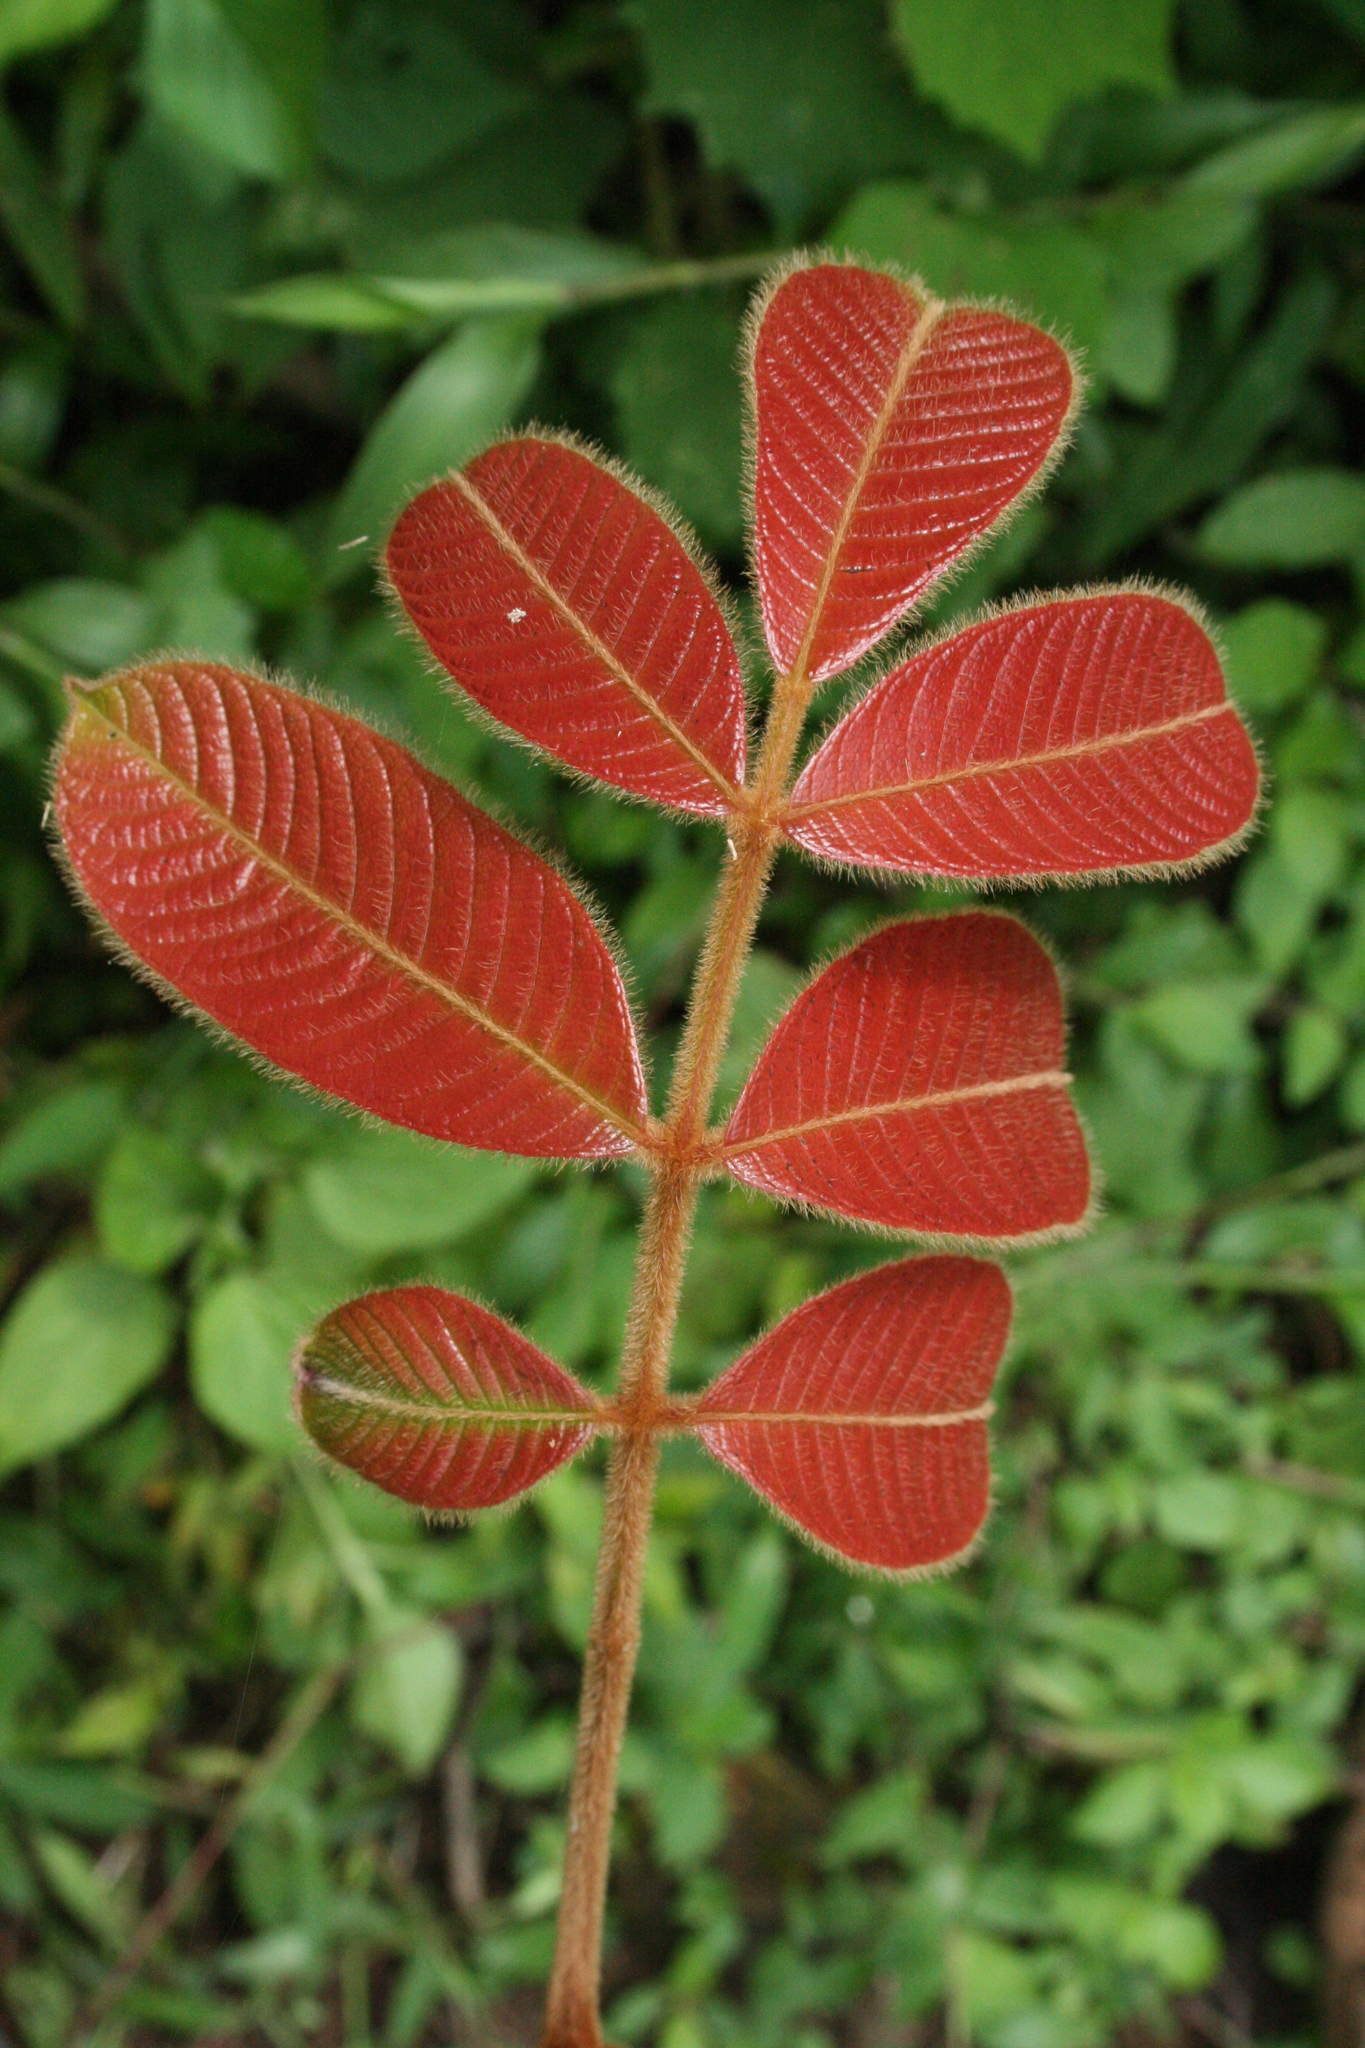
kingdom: Plantae
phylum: Tracheophyta
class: Magnoliopsida
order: Sapindales
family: Burseraceae
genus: Canarium
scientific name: Canarium strictum
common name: Indian white-mahogany
